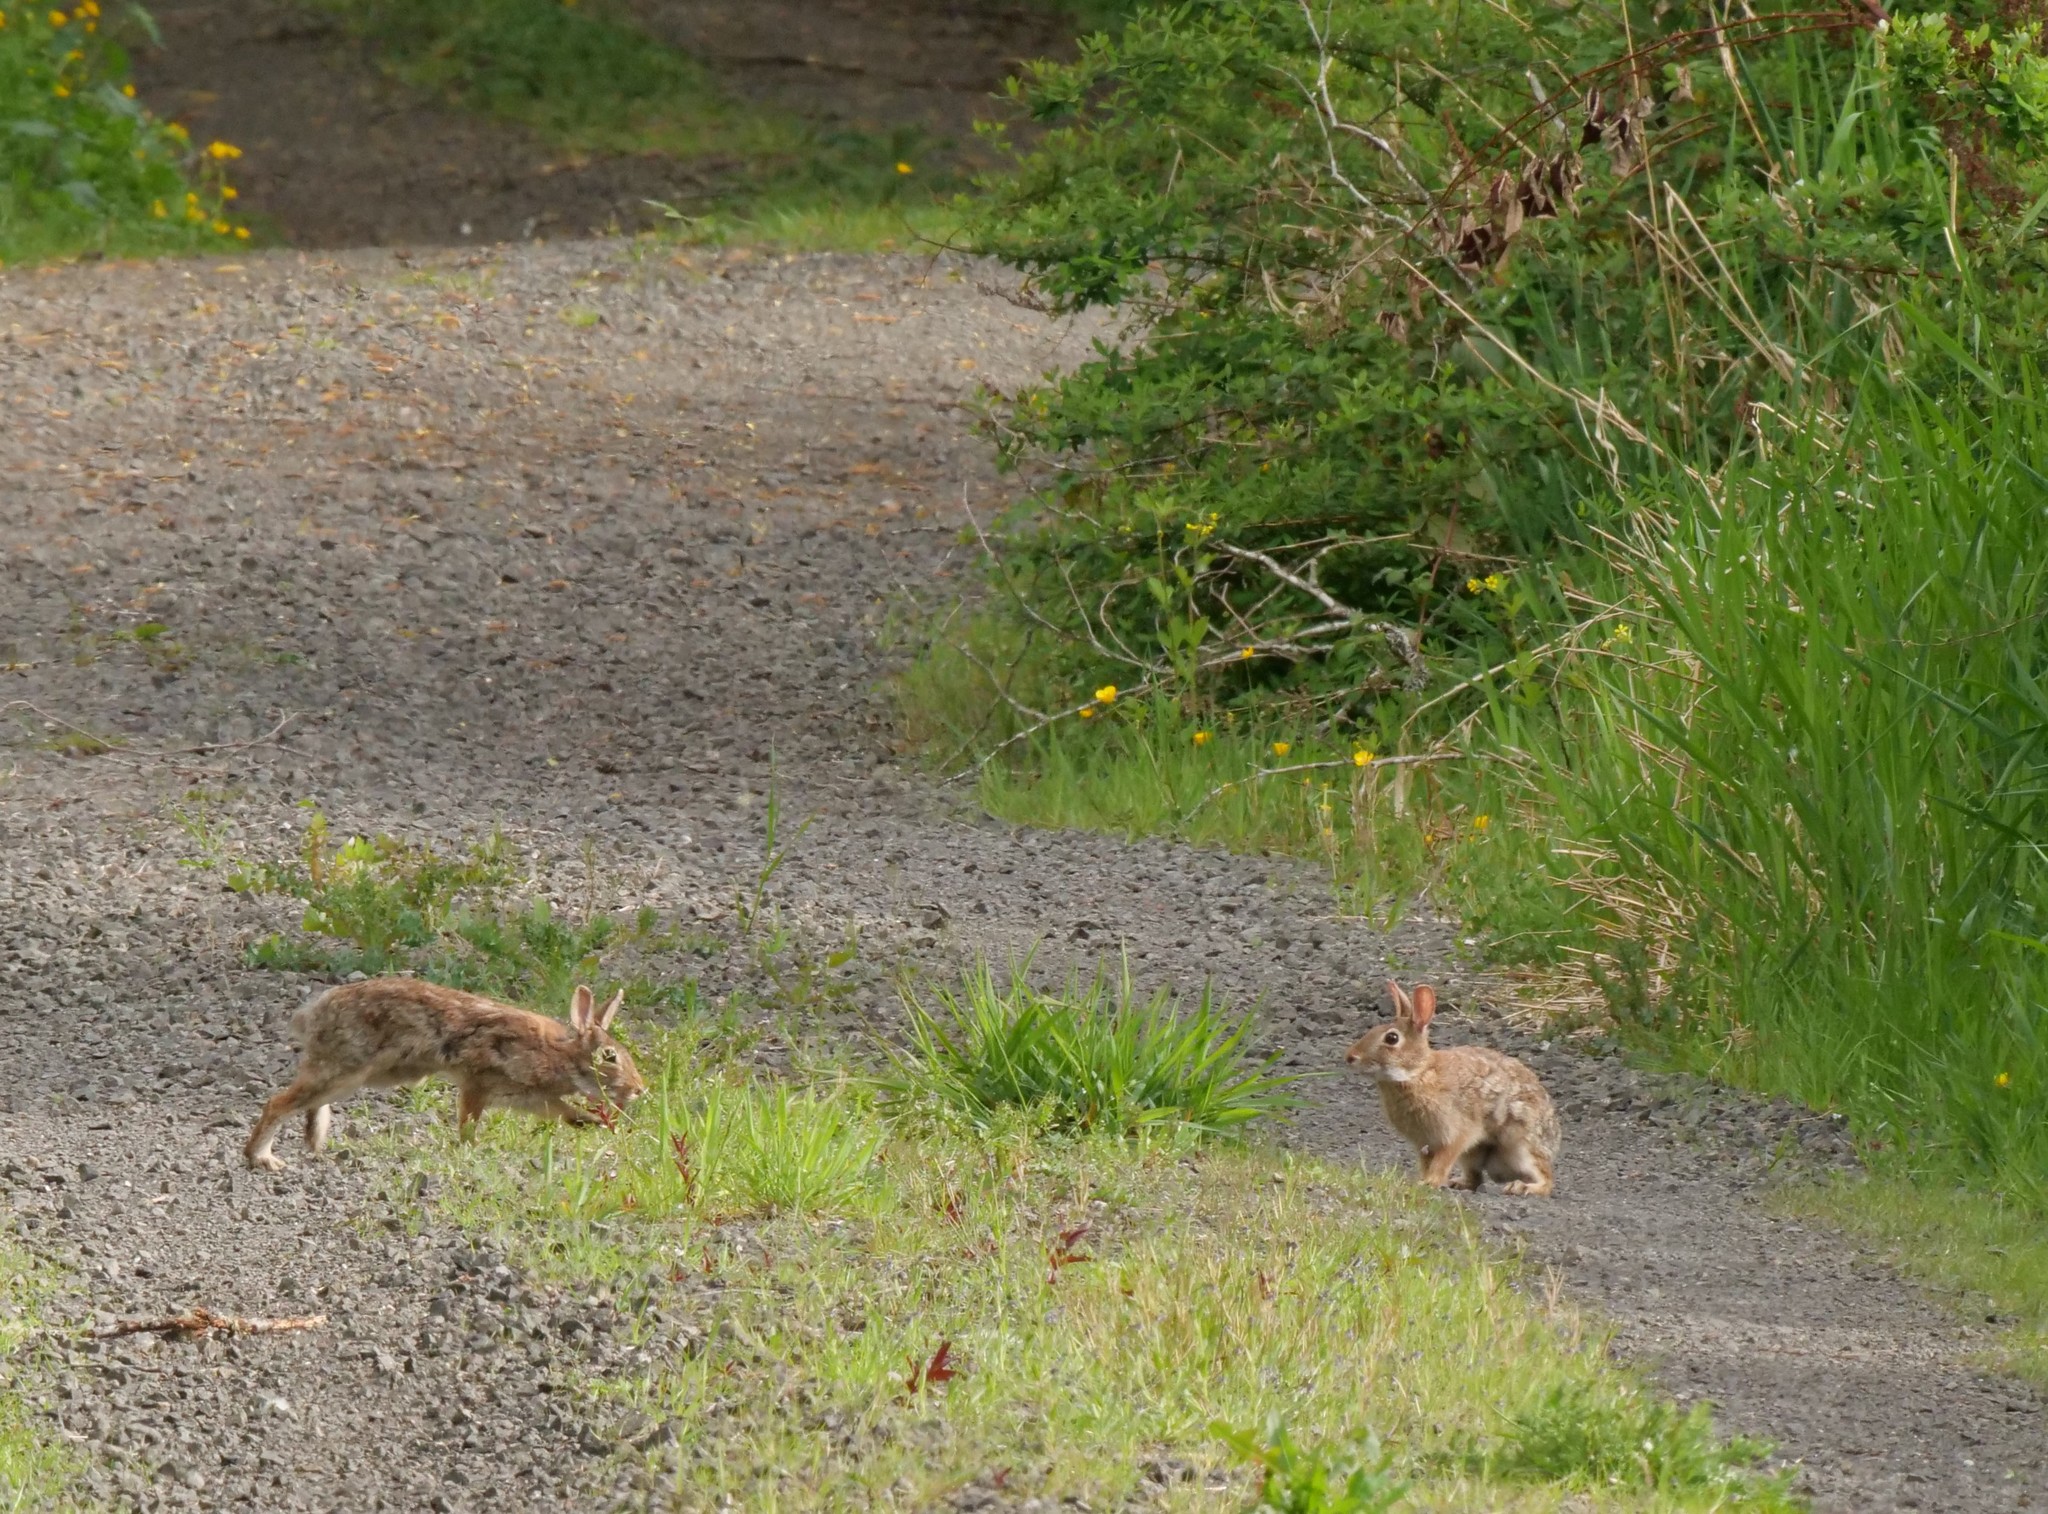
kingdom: Animalia
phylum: Chordata
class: Mammalia
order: Lagomorpha
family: Leporidae
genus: Sylvilagus
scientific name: Sylvilagus floridanus
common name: Eastern cottontail
